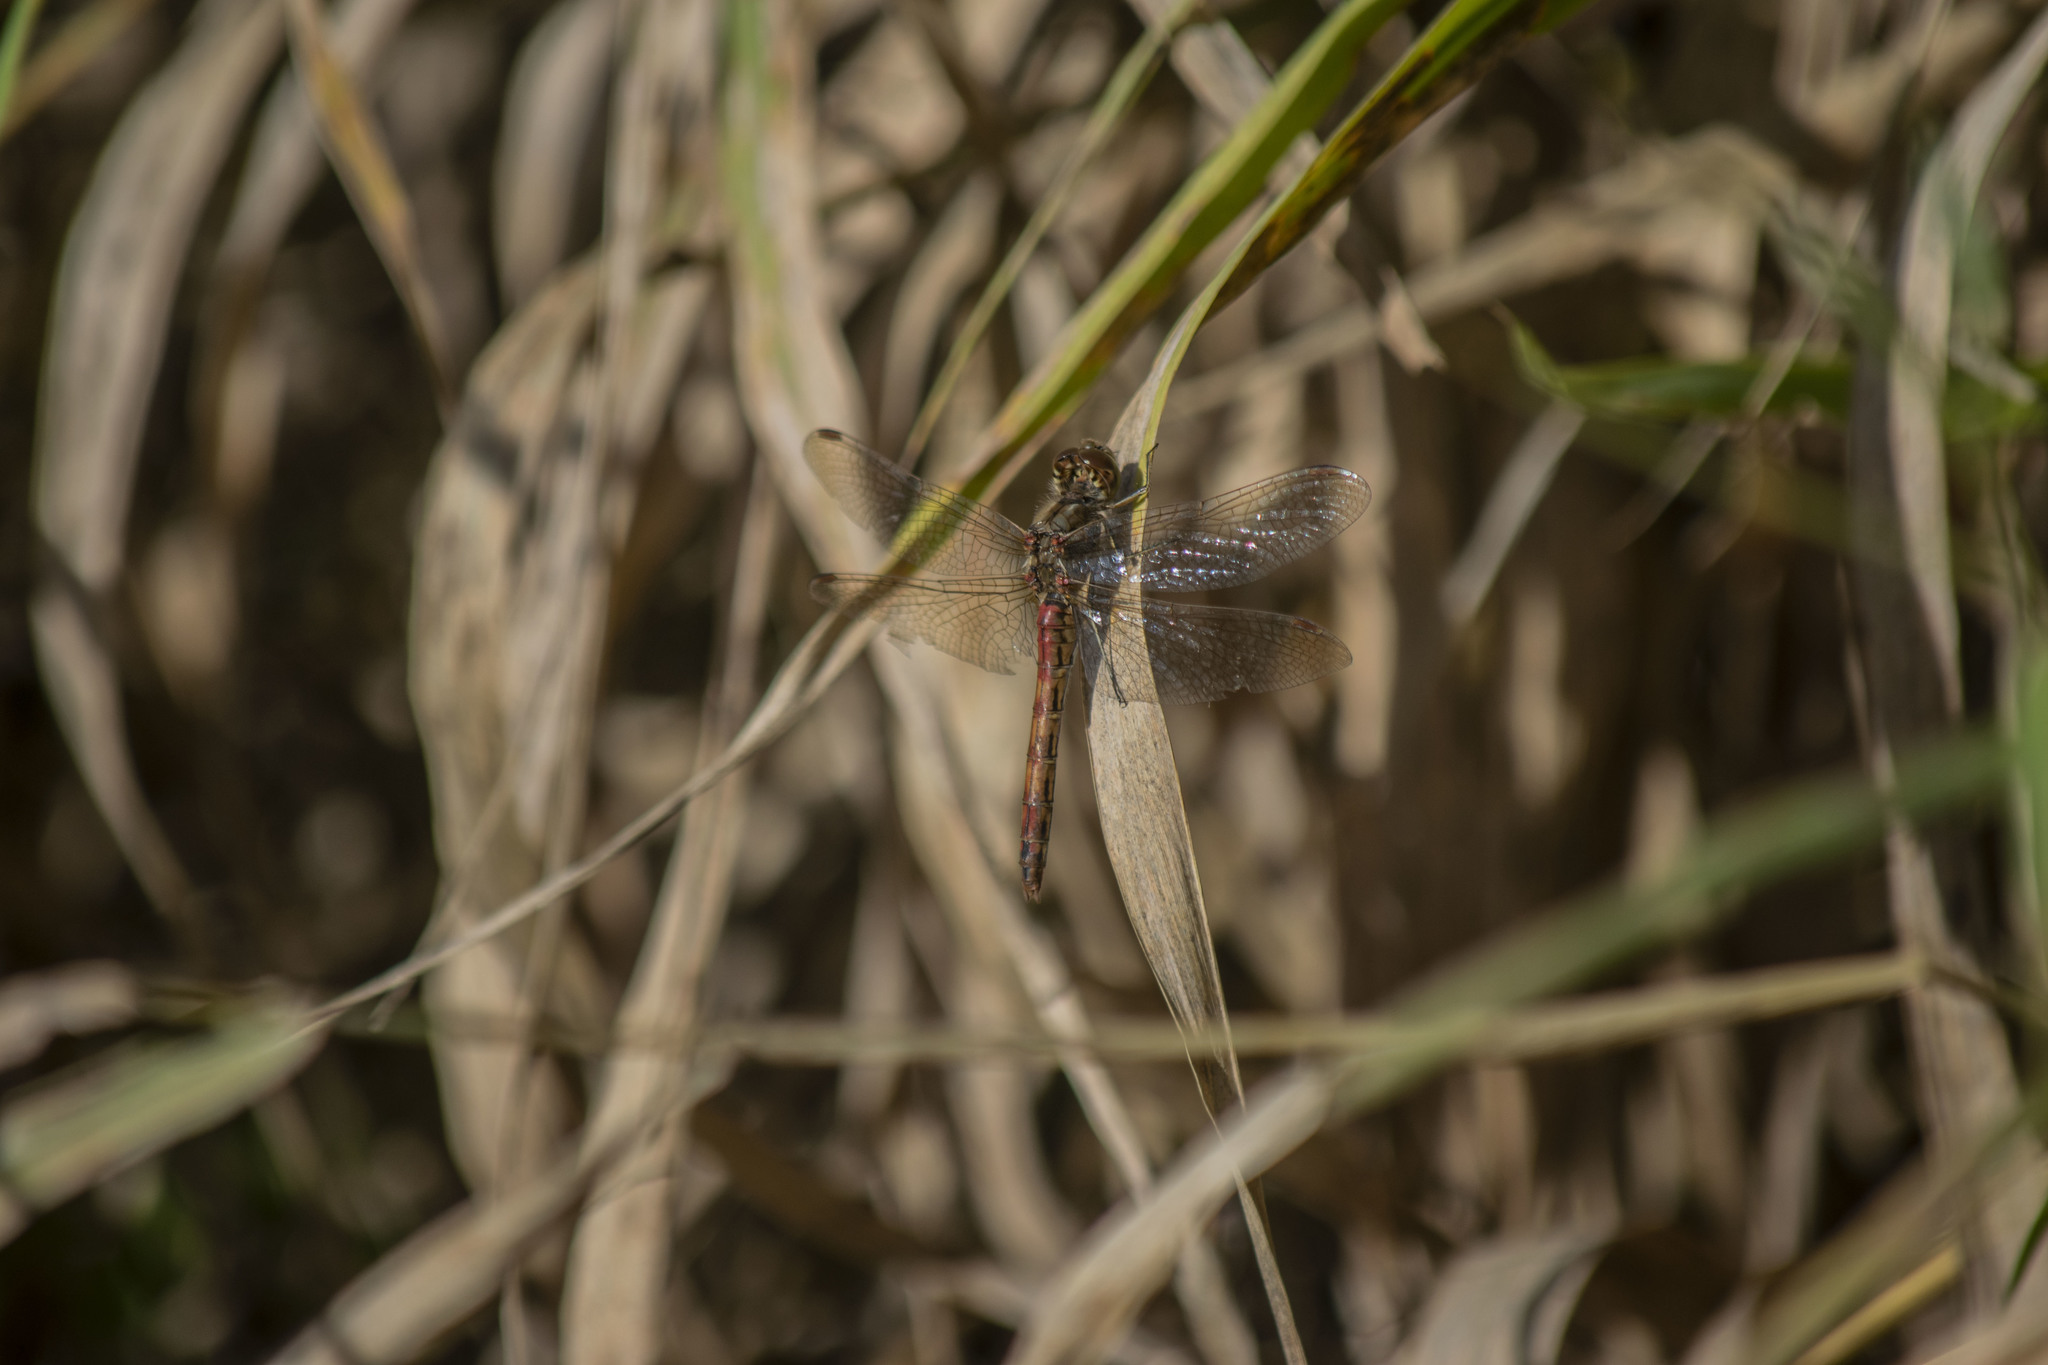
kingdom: Animalia
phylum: Arthropoda
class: Insecta
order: Odonata
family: Libellulidae
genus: Sympetrum
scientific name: Sympetrum vulgatum
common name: Vagrant darter
